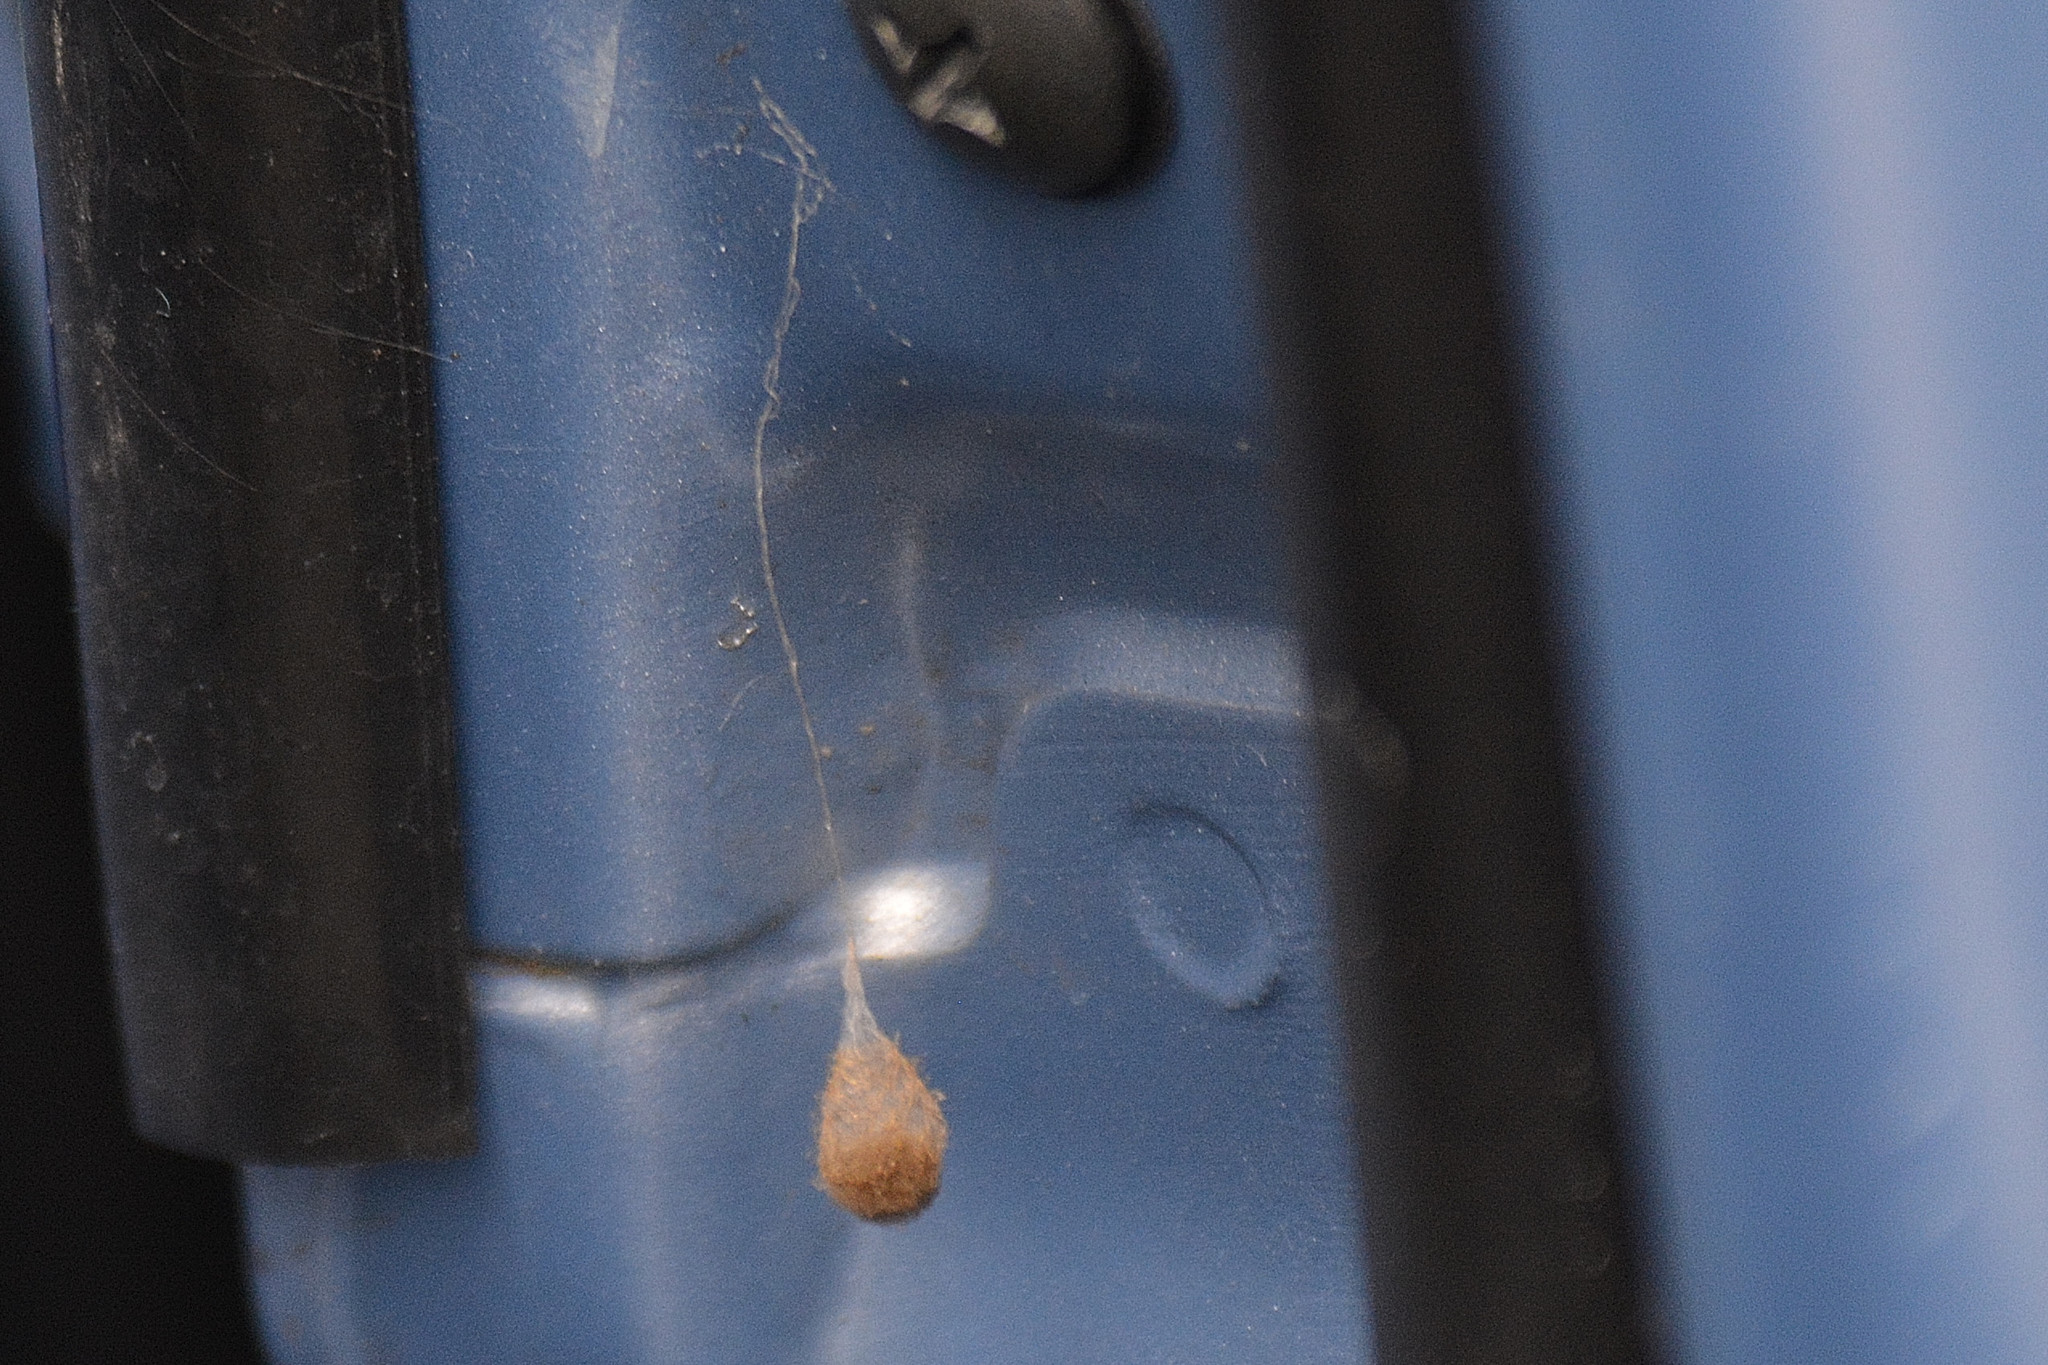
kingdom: Animalia
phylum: Arthropoda
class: Arachnida
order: Araneae
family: Mimetidae
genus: Ero
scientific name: Ero
